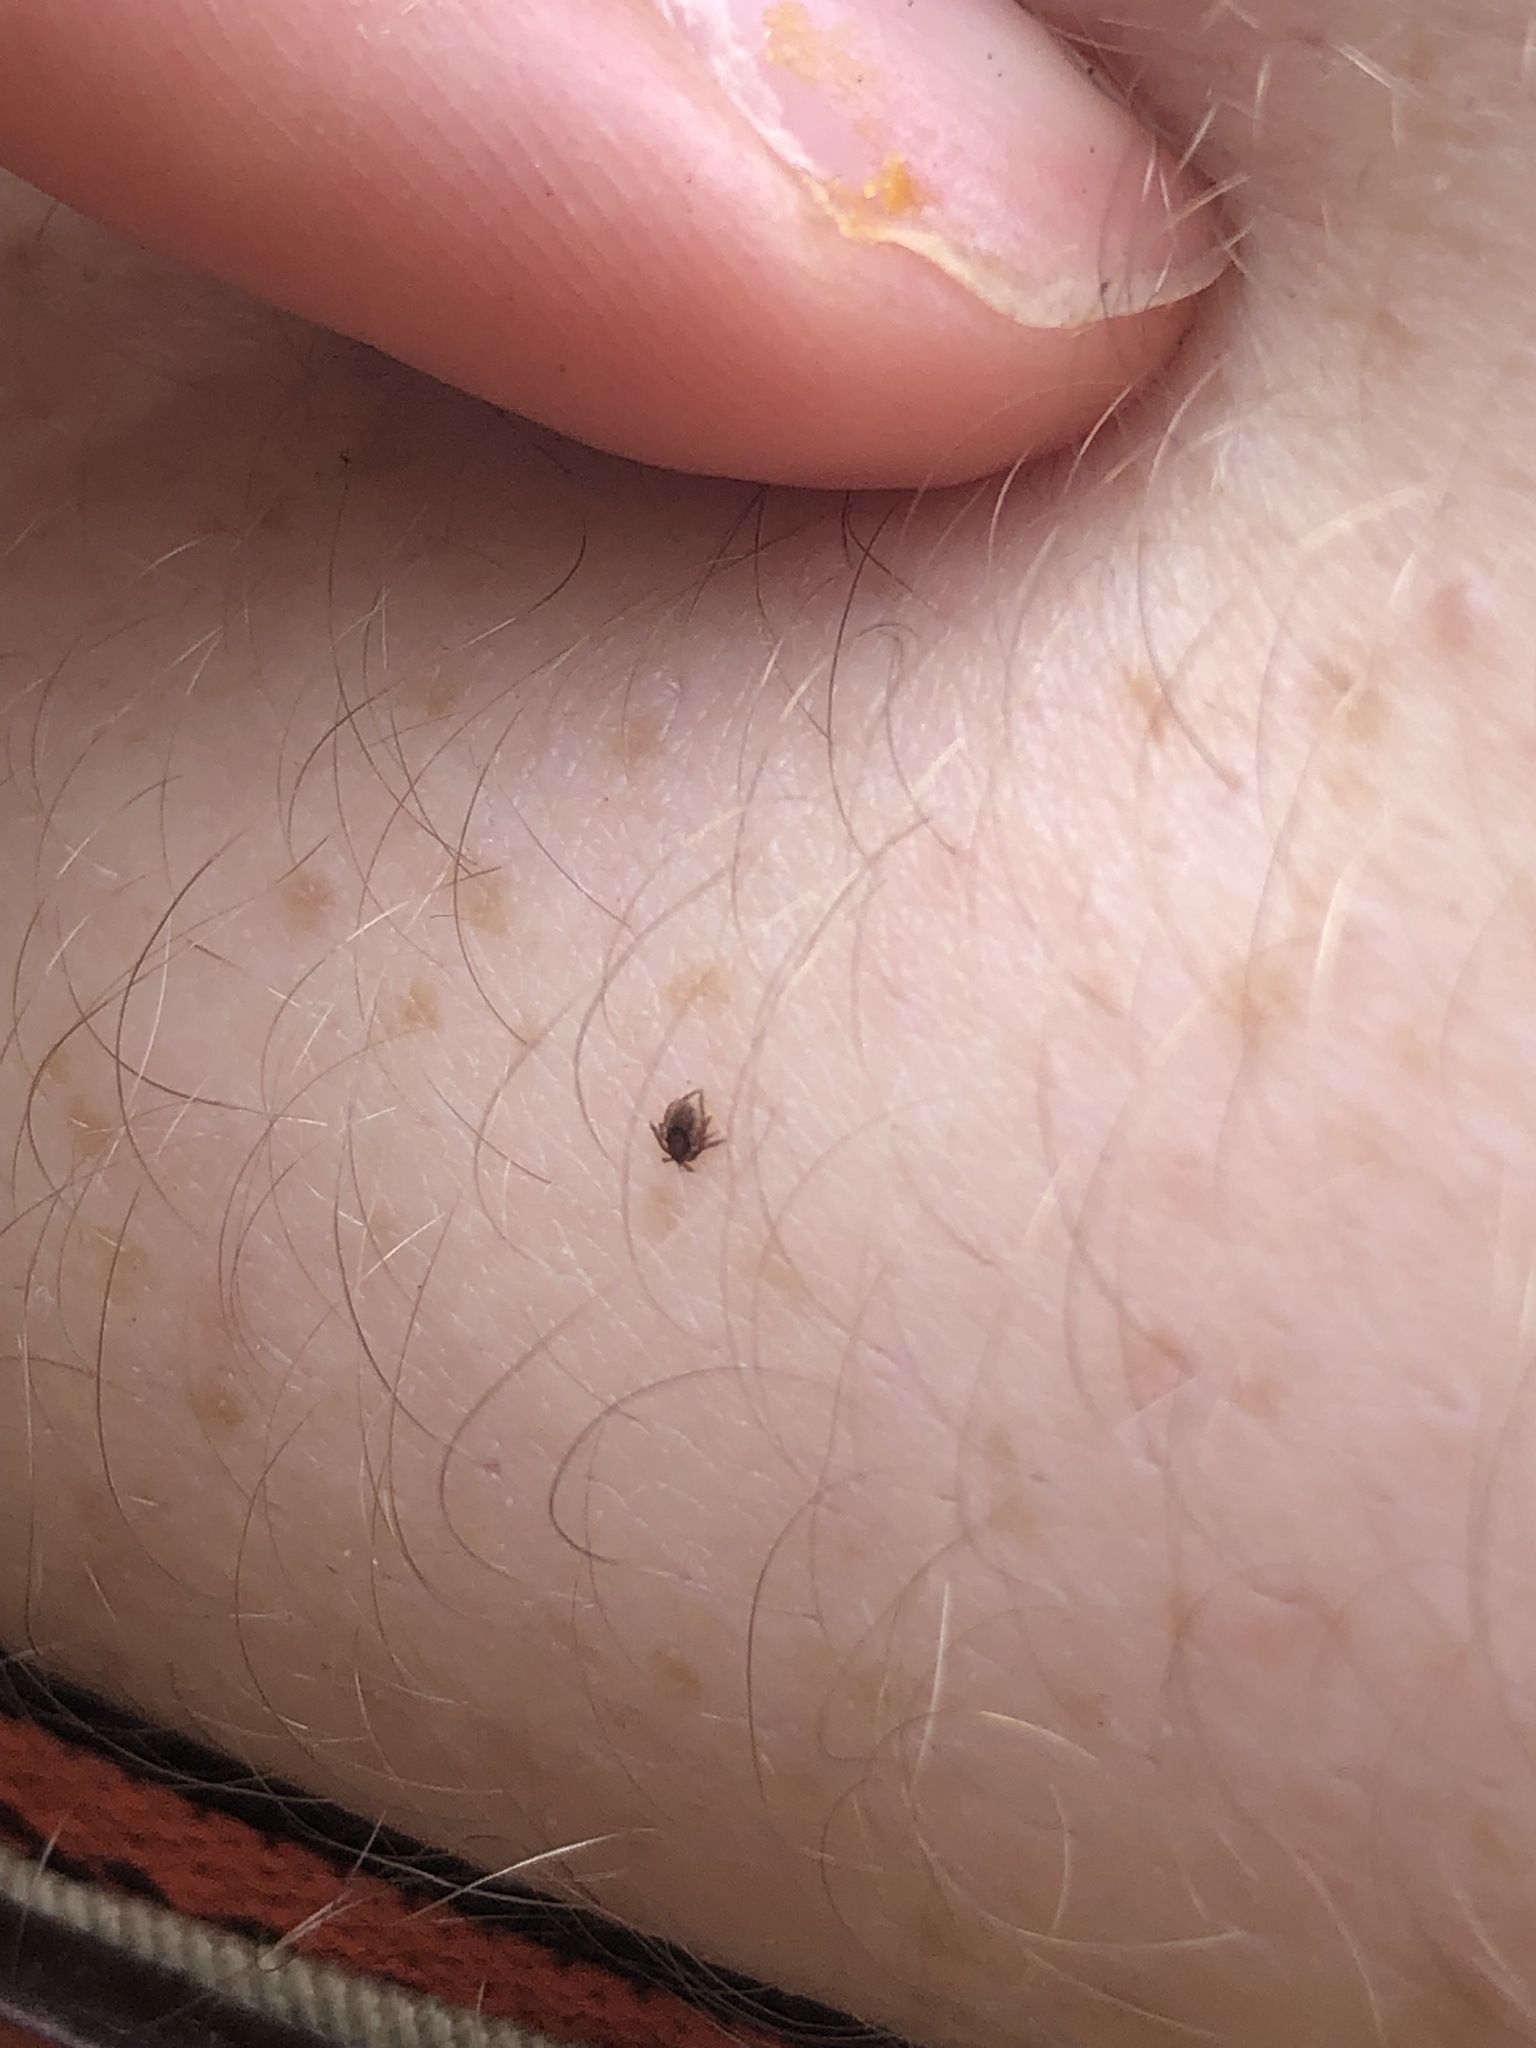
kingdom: Animalia
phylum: Arthropoda
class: Arachnida
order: Ixodida
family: Ixodidae
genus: Ixodes
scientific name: Ixodes ricinus
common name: Castor bean tick
